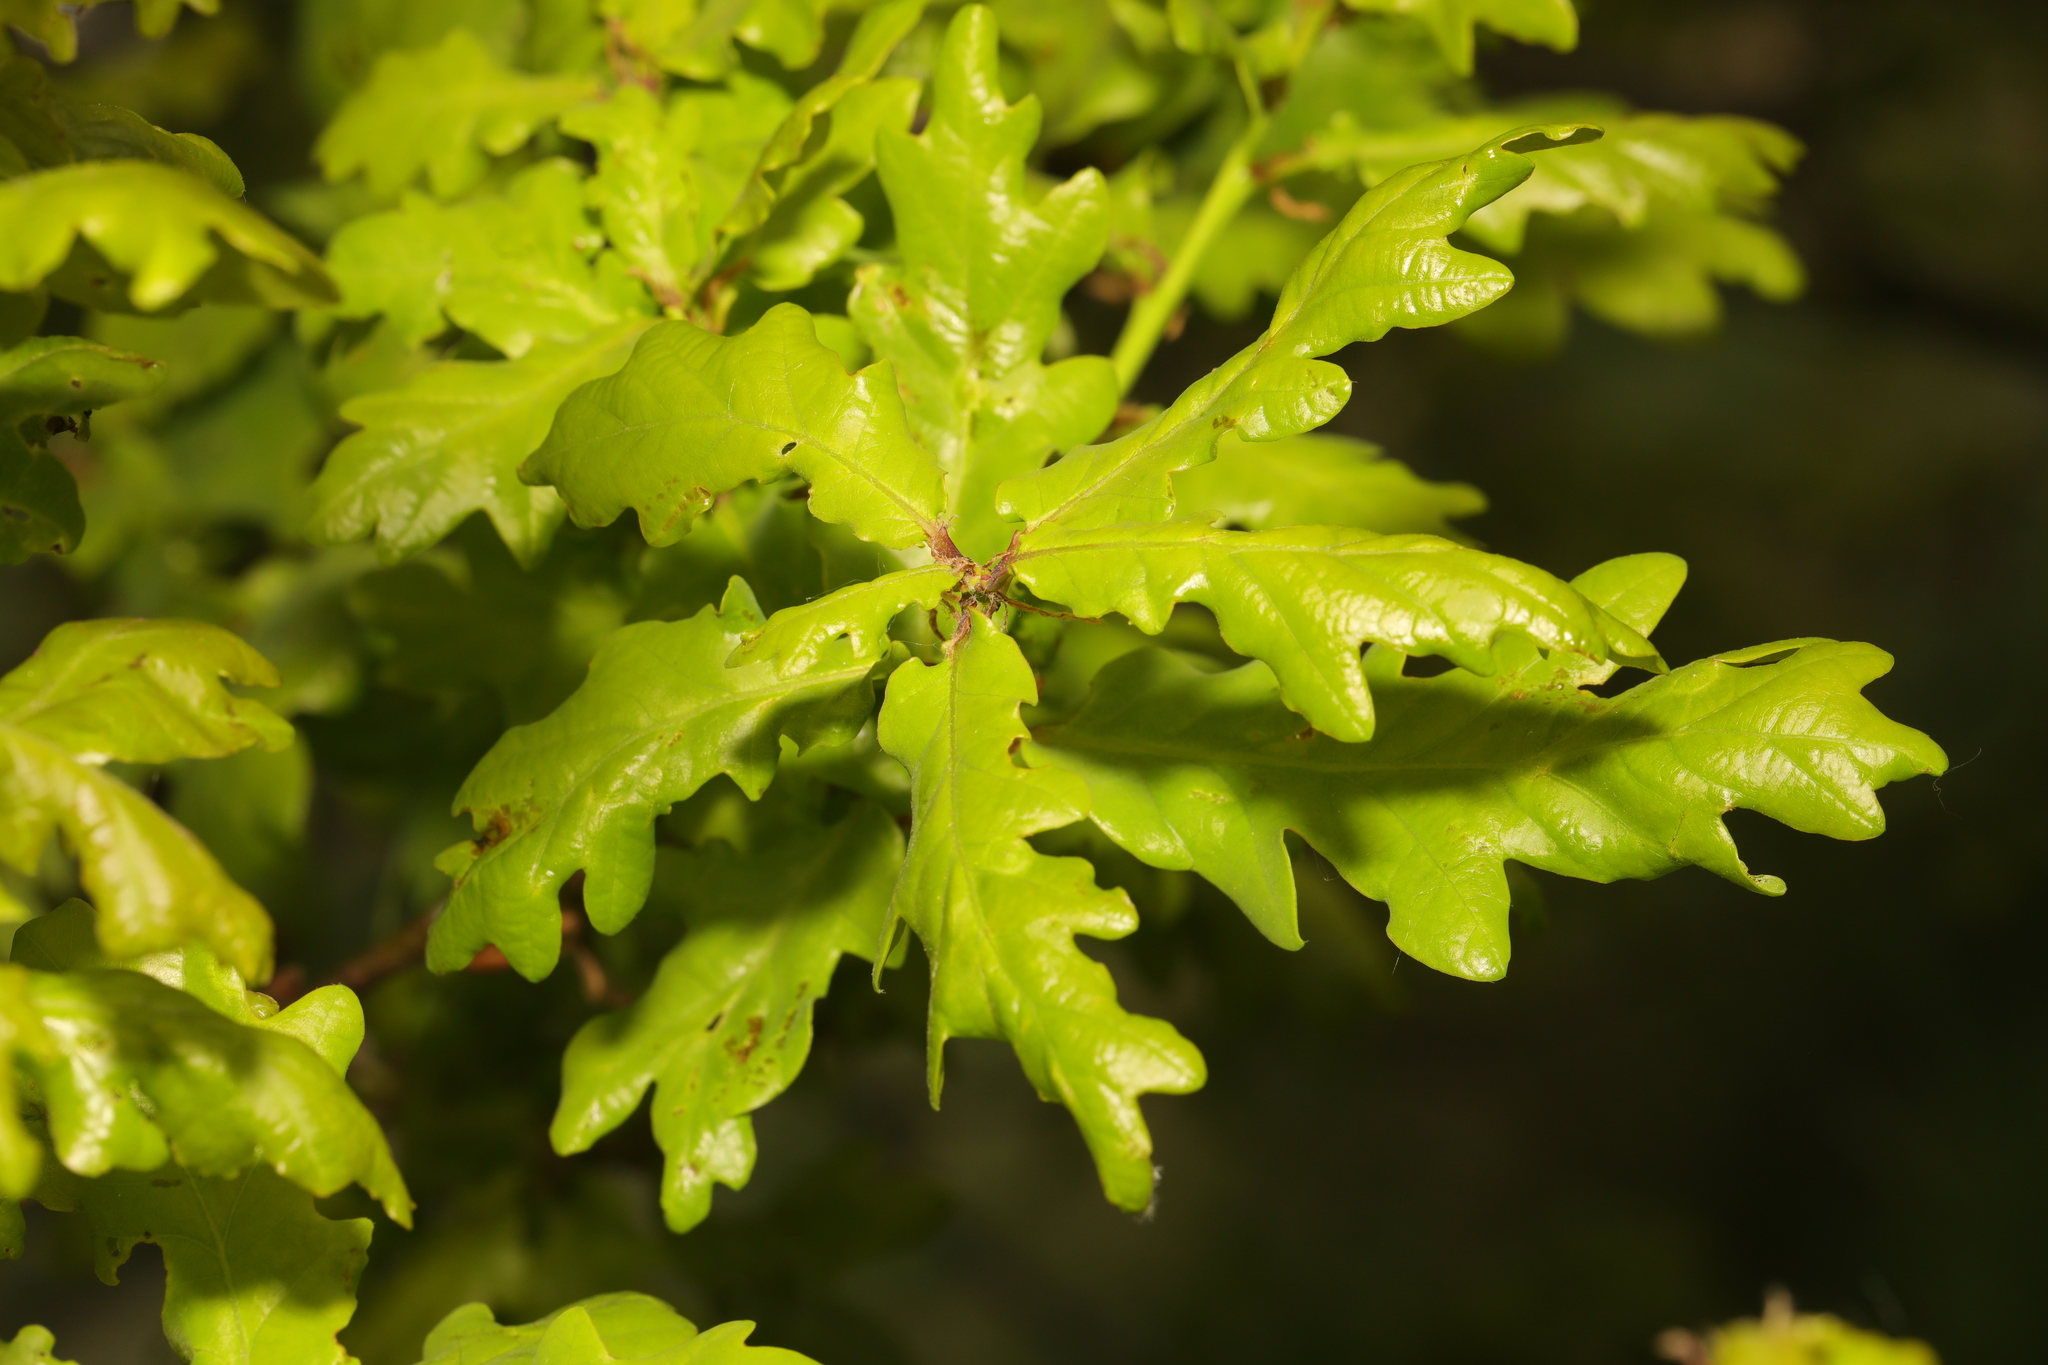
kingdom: Plantae
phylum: Tracheophyta
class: Magnoliopsida
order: Fagales
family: Fagaceae
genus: Quercus
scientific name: Quercus robur
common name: Pedunculate oak
